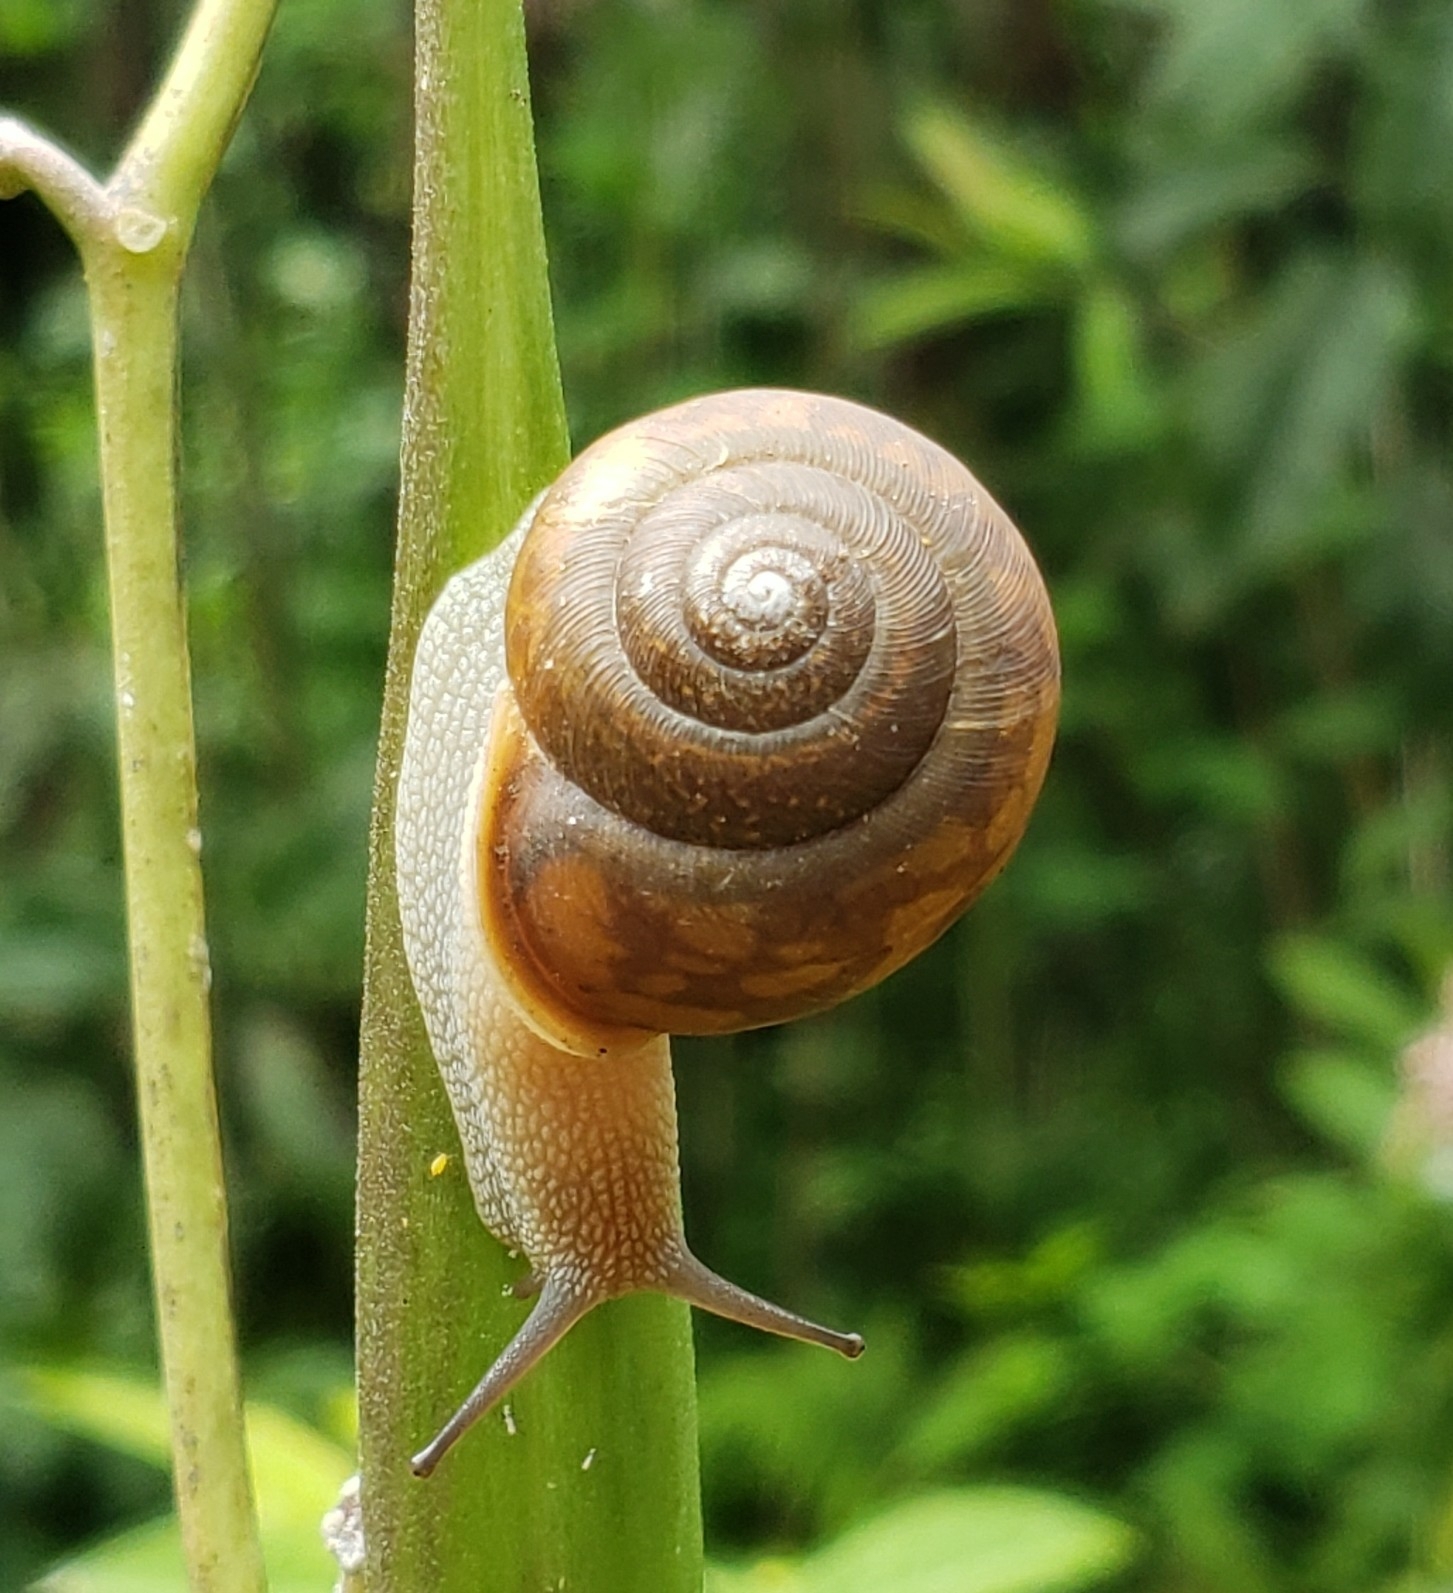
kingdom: Animalia
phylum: Mollusca
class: Gastropoda
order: Stylommatophora
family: Polygyridae
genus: Neohelix
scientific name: Neohelix albolabris
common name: Eastern whitelip
